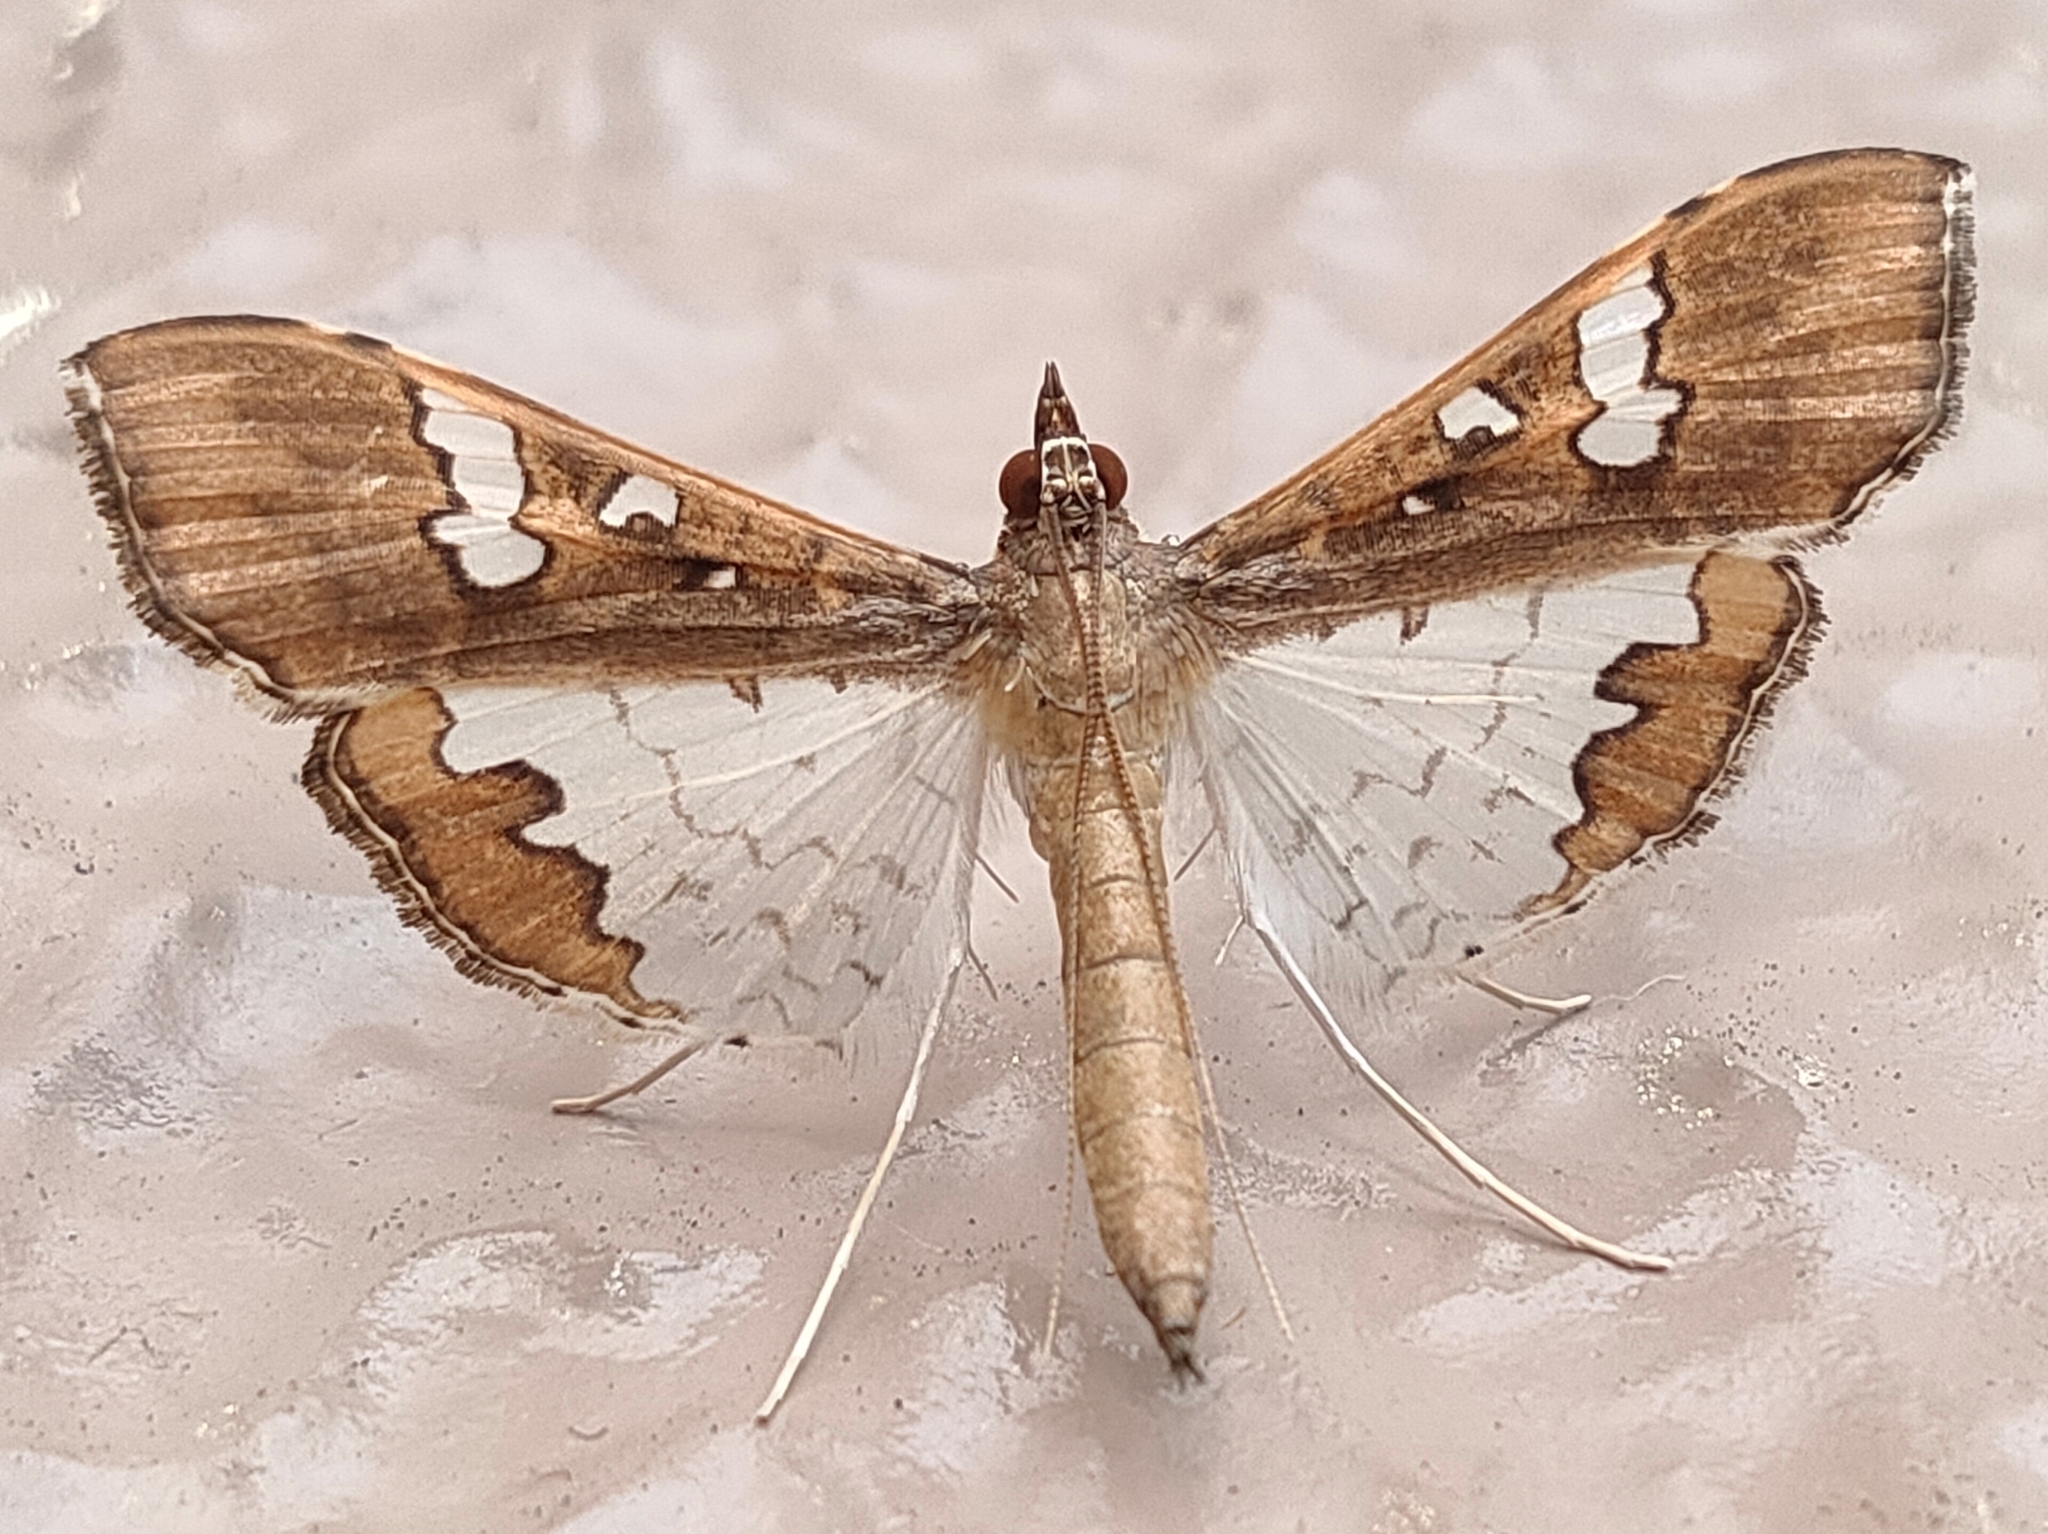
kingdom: Animalia
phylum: Arthropoda
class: Insecta
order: Lepidoptera
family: Crambidae
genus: Maruca
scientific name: Maruca vitrata
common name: Maruca pod borer
